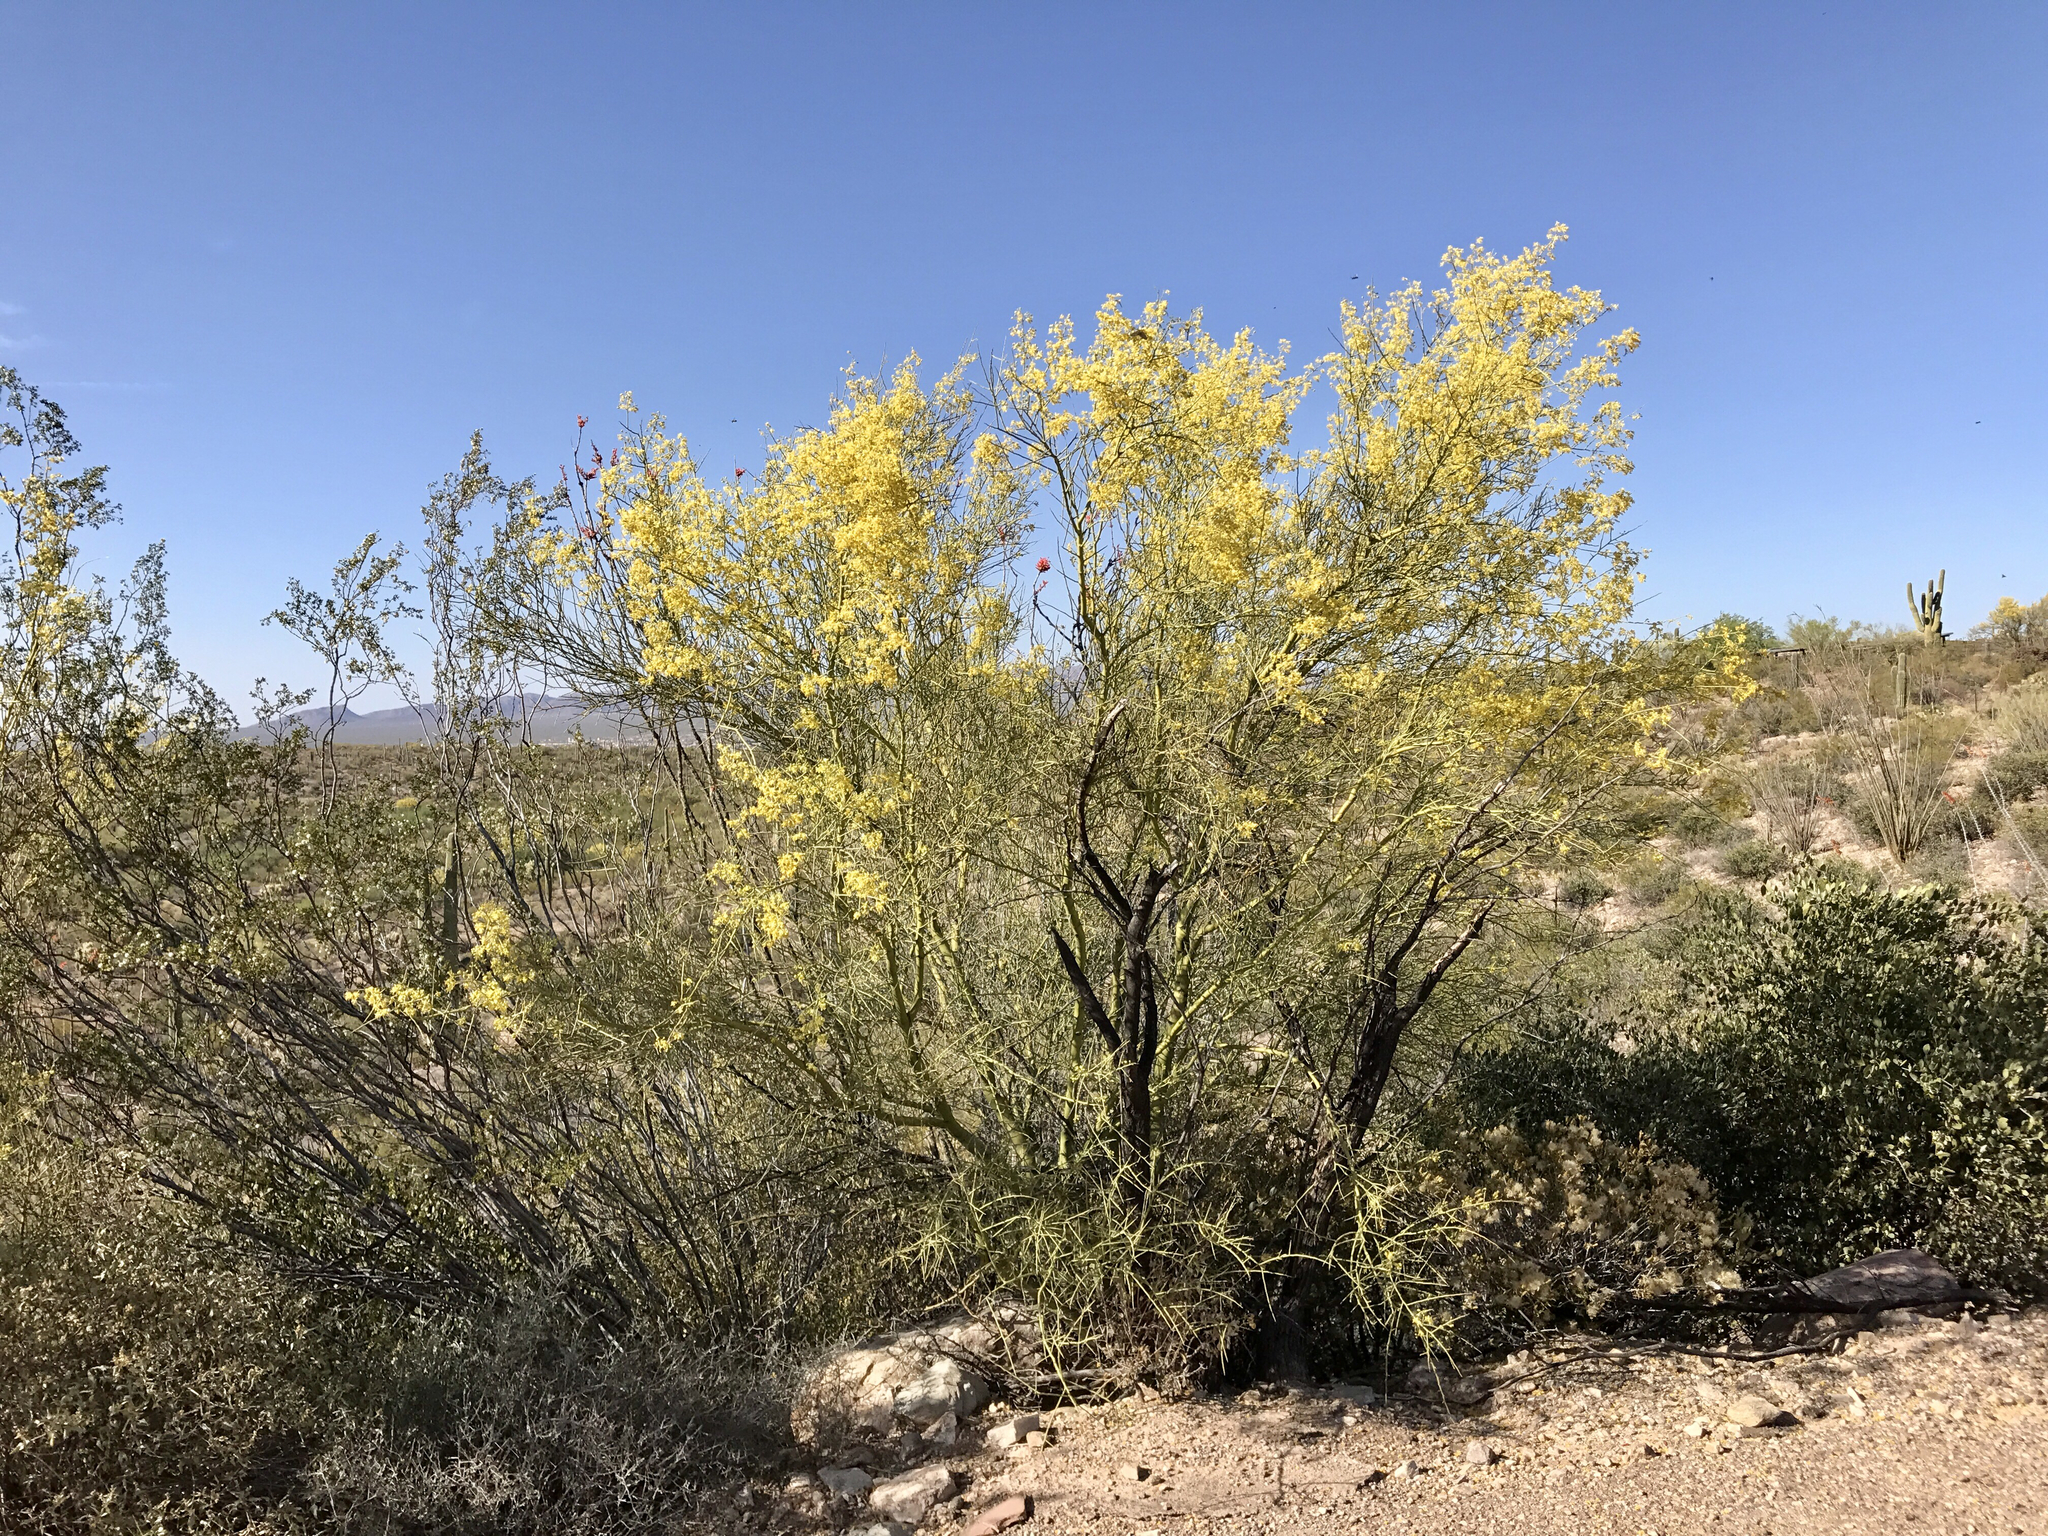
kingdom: Plantae
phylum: Tracheophyta
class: Magnoliopsida
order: Fabales
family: Fabaceae
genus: Parkinsonia
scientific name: Parkinsonia microphylla
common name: Yellow paloverde
